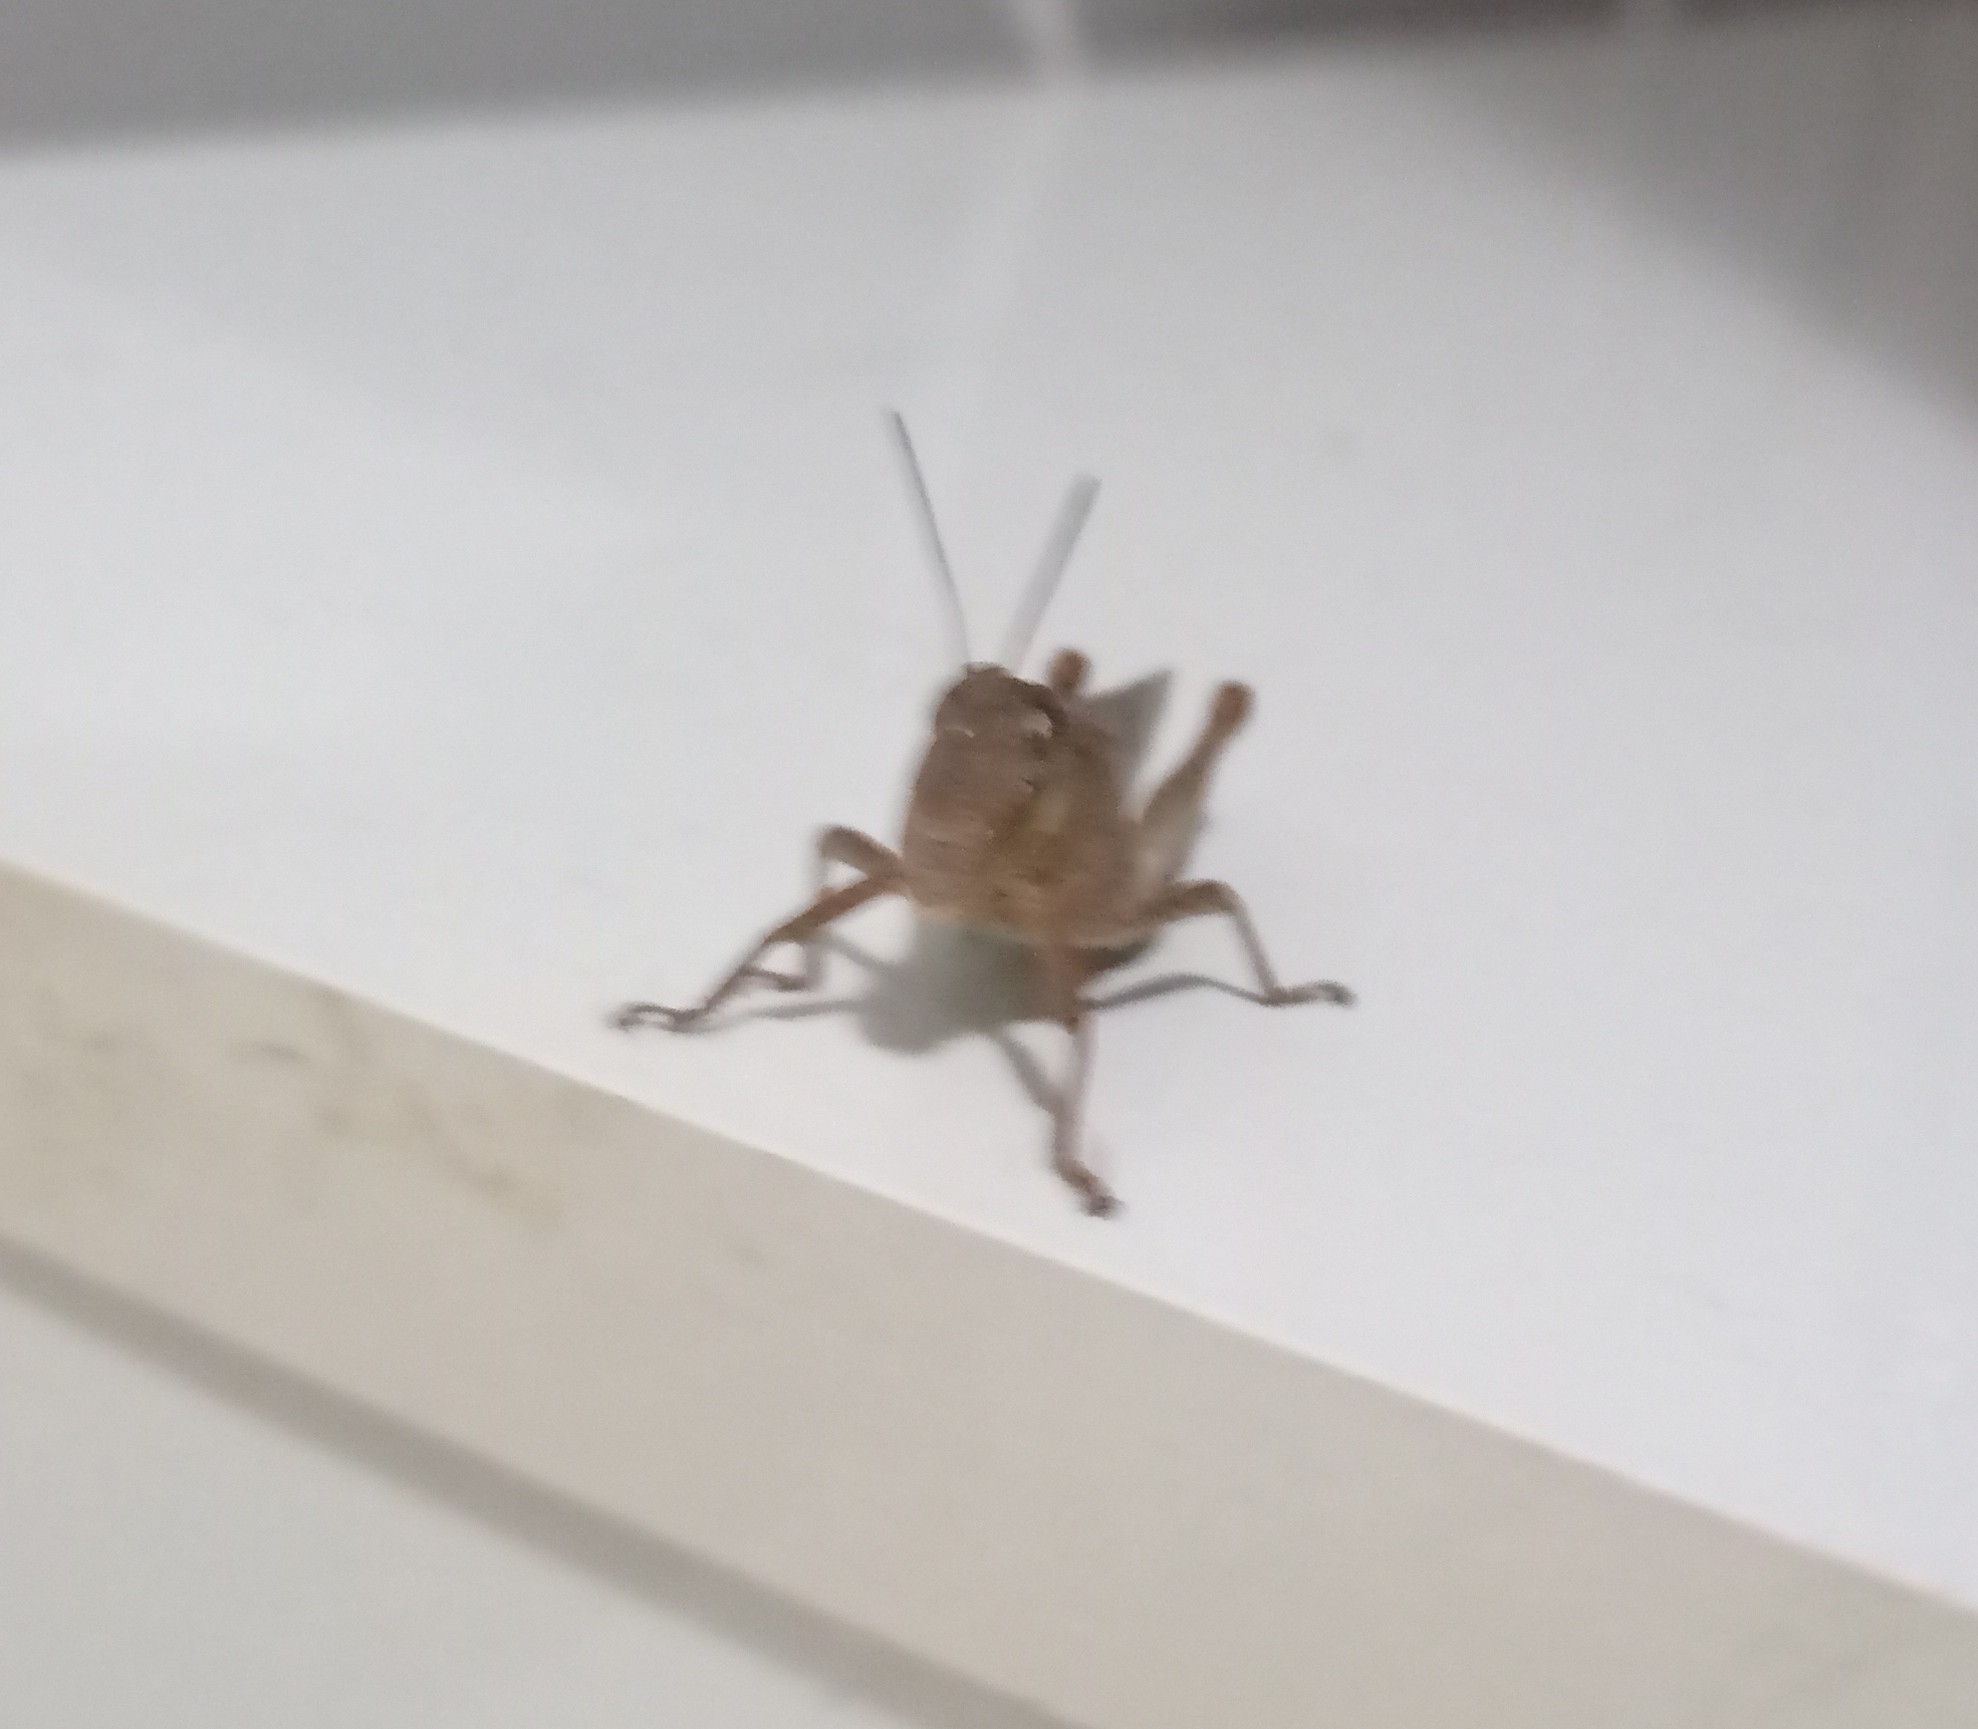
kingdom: Animalia
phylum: Arthropoda
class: Insecta
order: Orthoptera
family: Acrididae
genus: Abracris
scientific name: Abracris flavolineata
